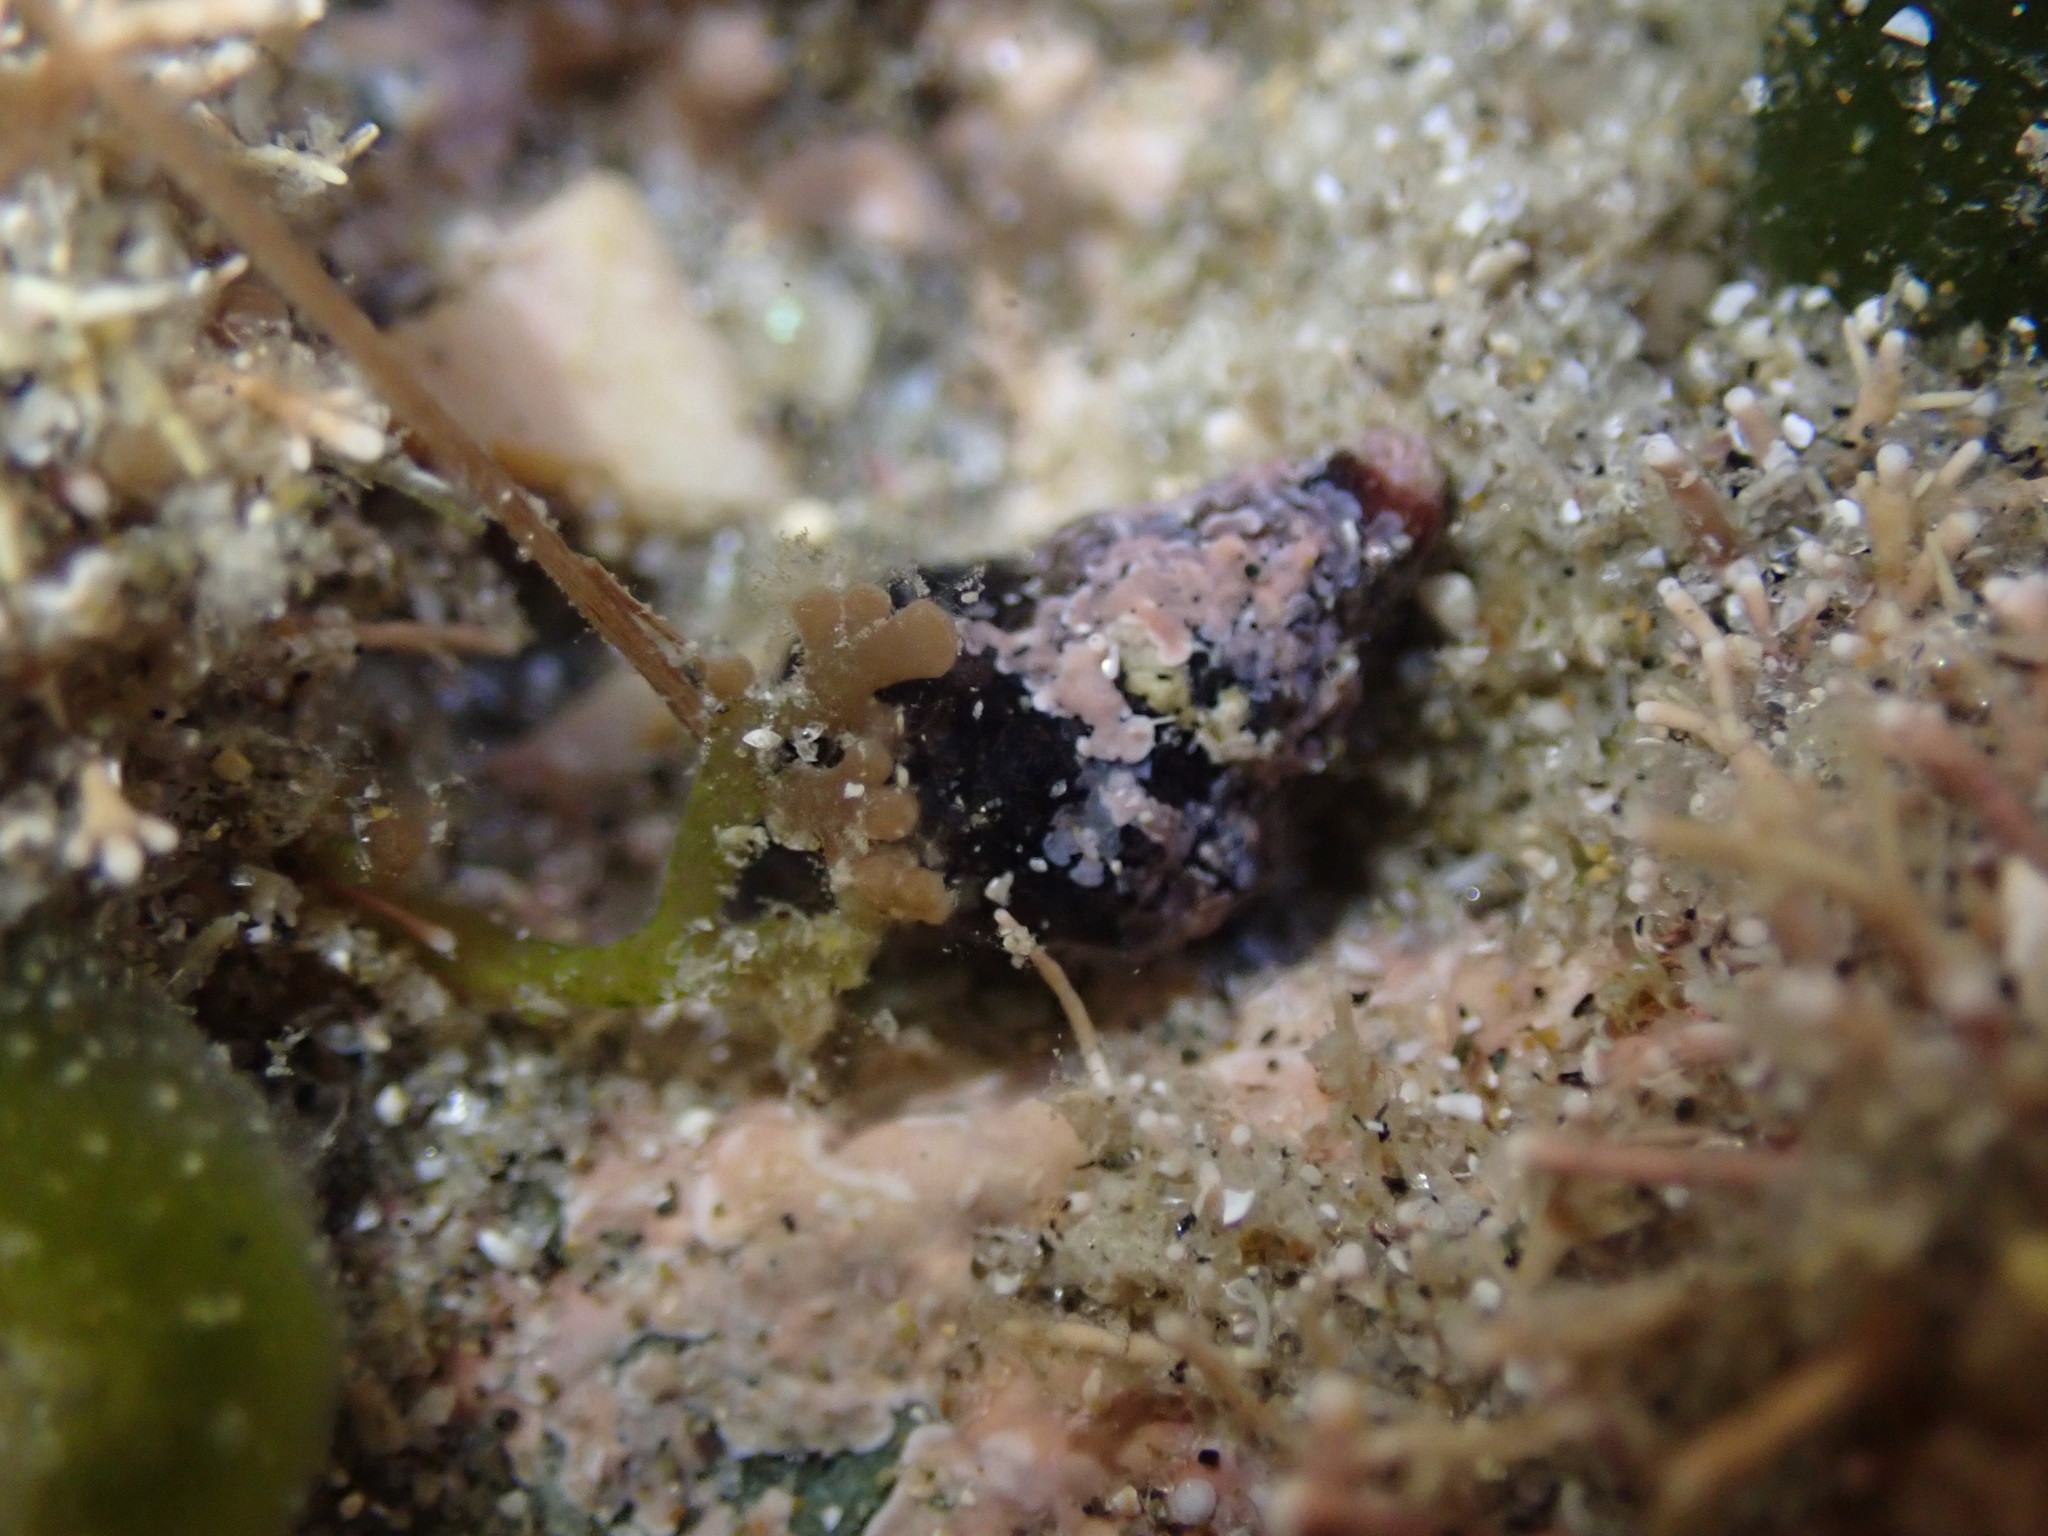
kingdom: Animalia
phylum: Mollusca
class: Gastropoda
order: Neogastropoda
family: Fasciolariidae
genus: Taron
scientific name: Taron dubius
